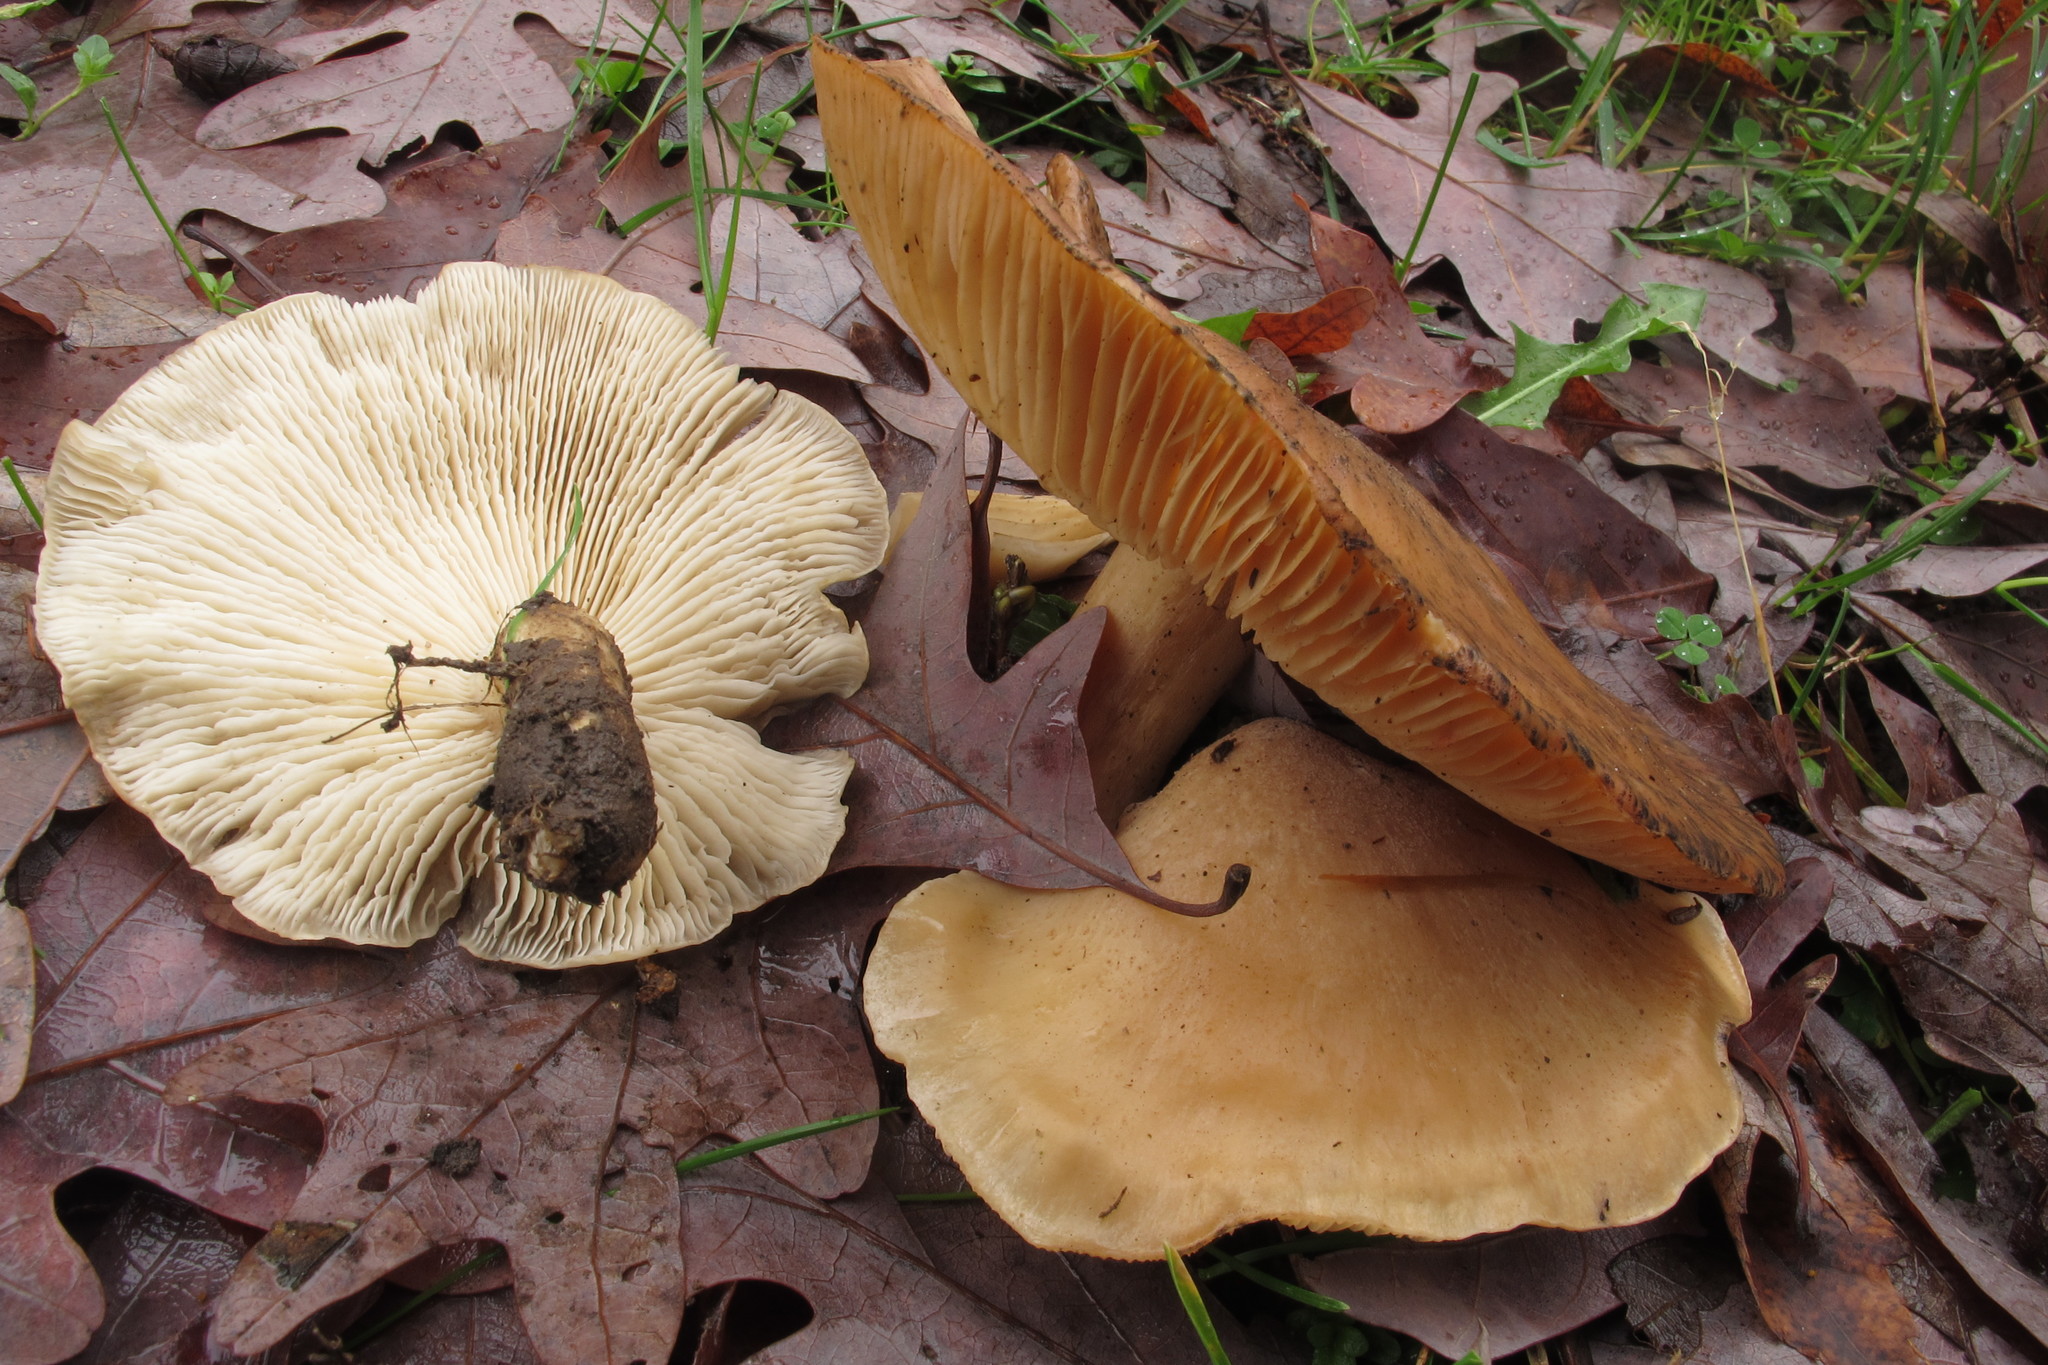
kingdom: Fungi
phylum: Basidiomycota
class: Agaricomycetes
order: Agaricales
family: Lyophyllaceae
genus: Hypsizygus
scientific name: Hypsizygus ulmarius
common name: Elm leech
